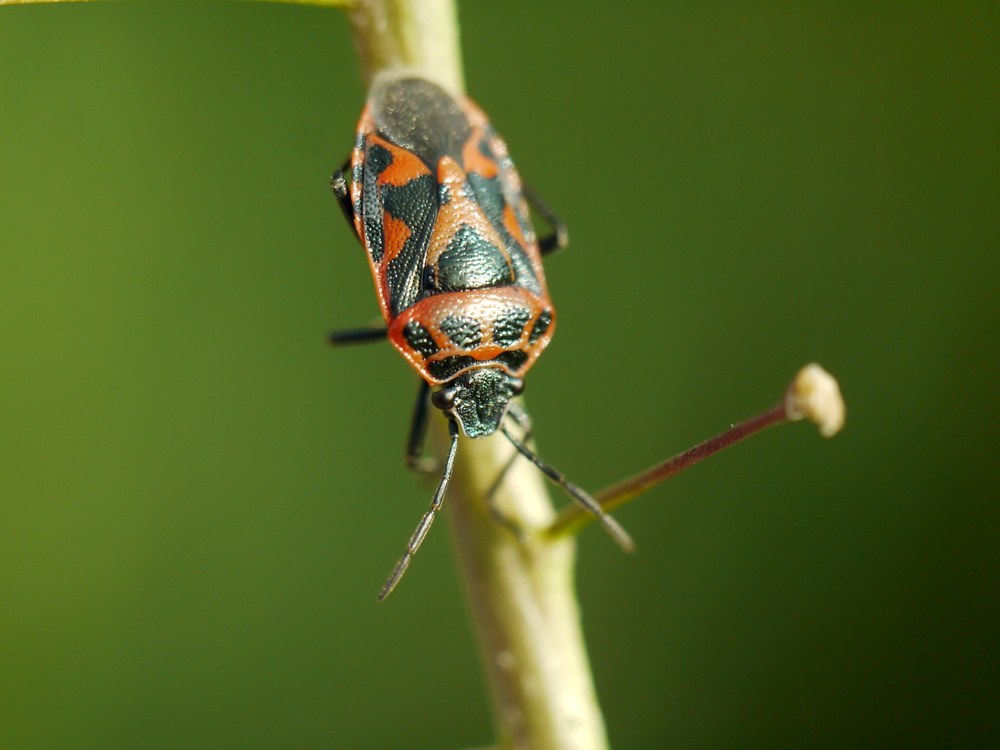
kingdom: Animalia
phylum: Arthropoda
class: Insecta
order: Hemiptera
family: Pentatomidae
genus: Eurydema
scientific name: Eurydema ornata
